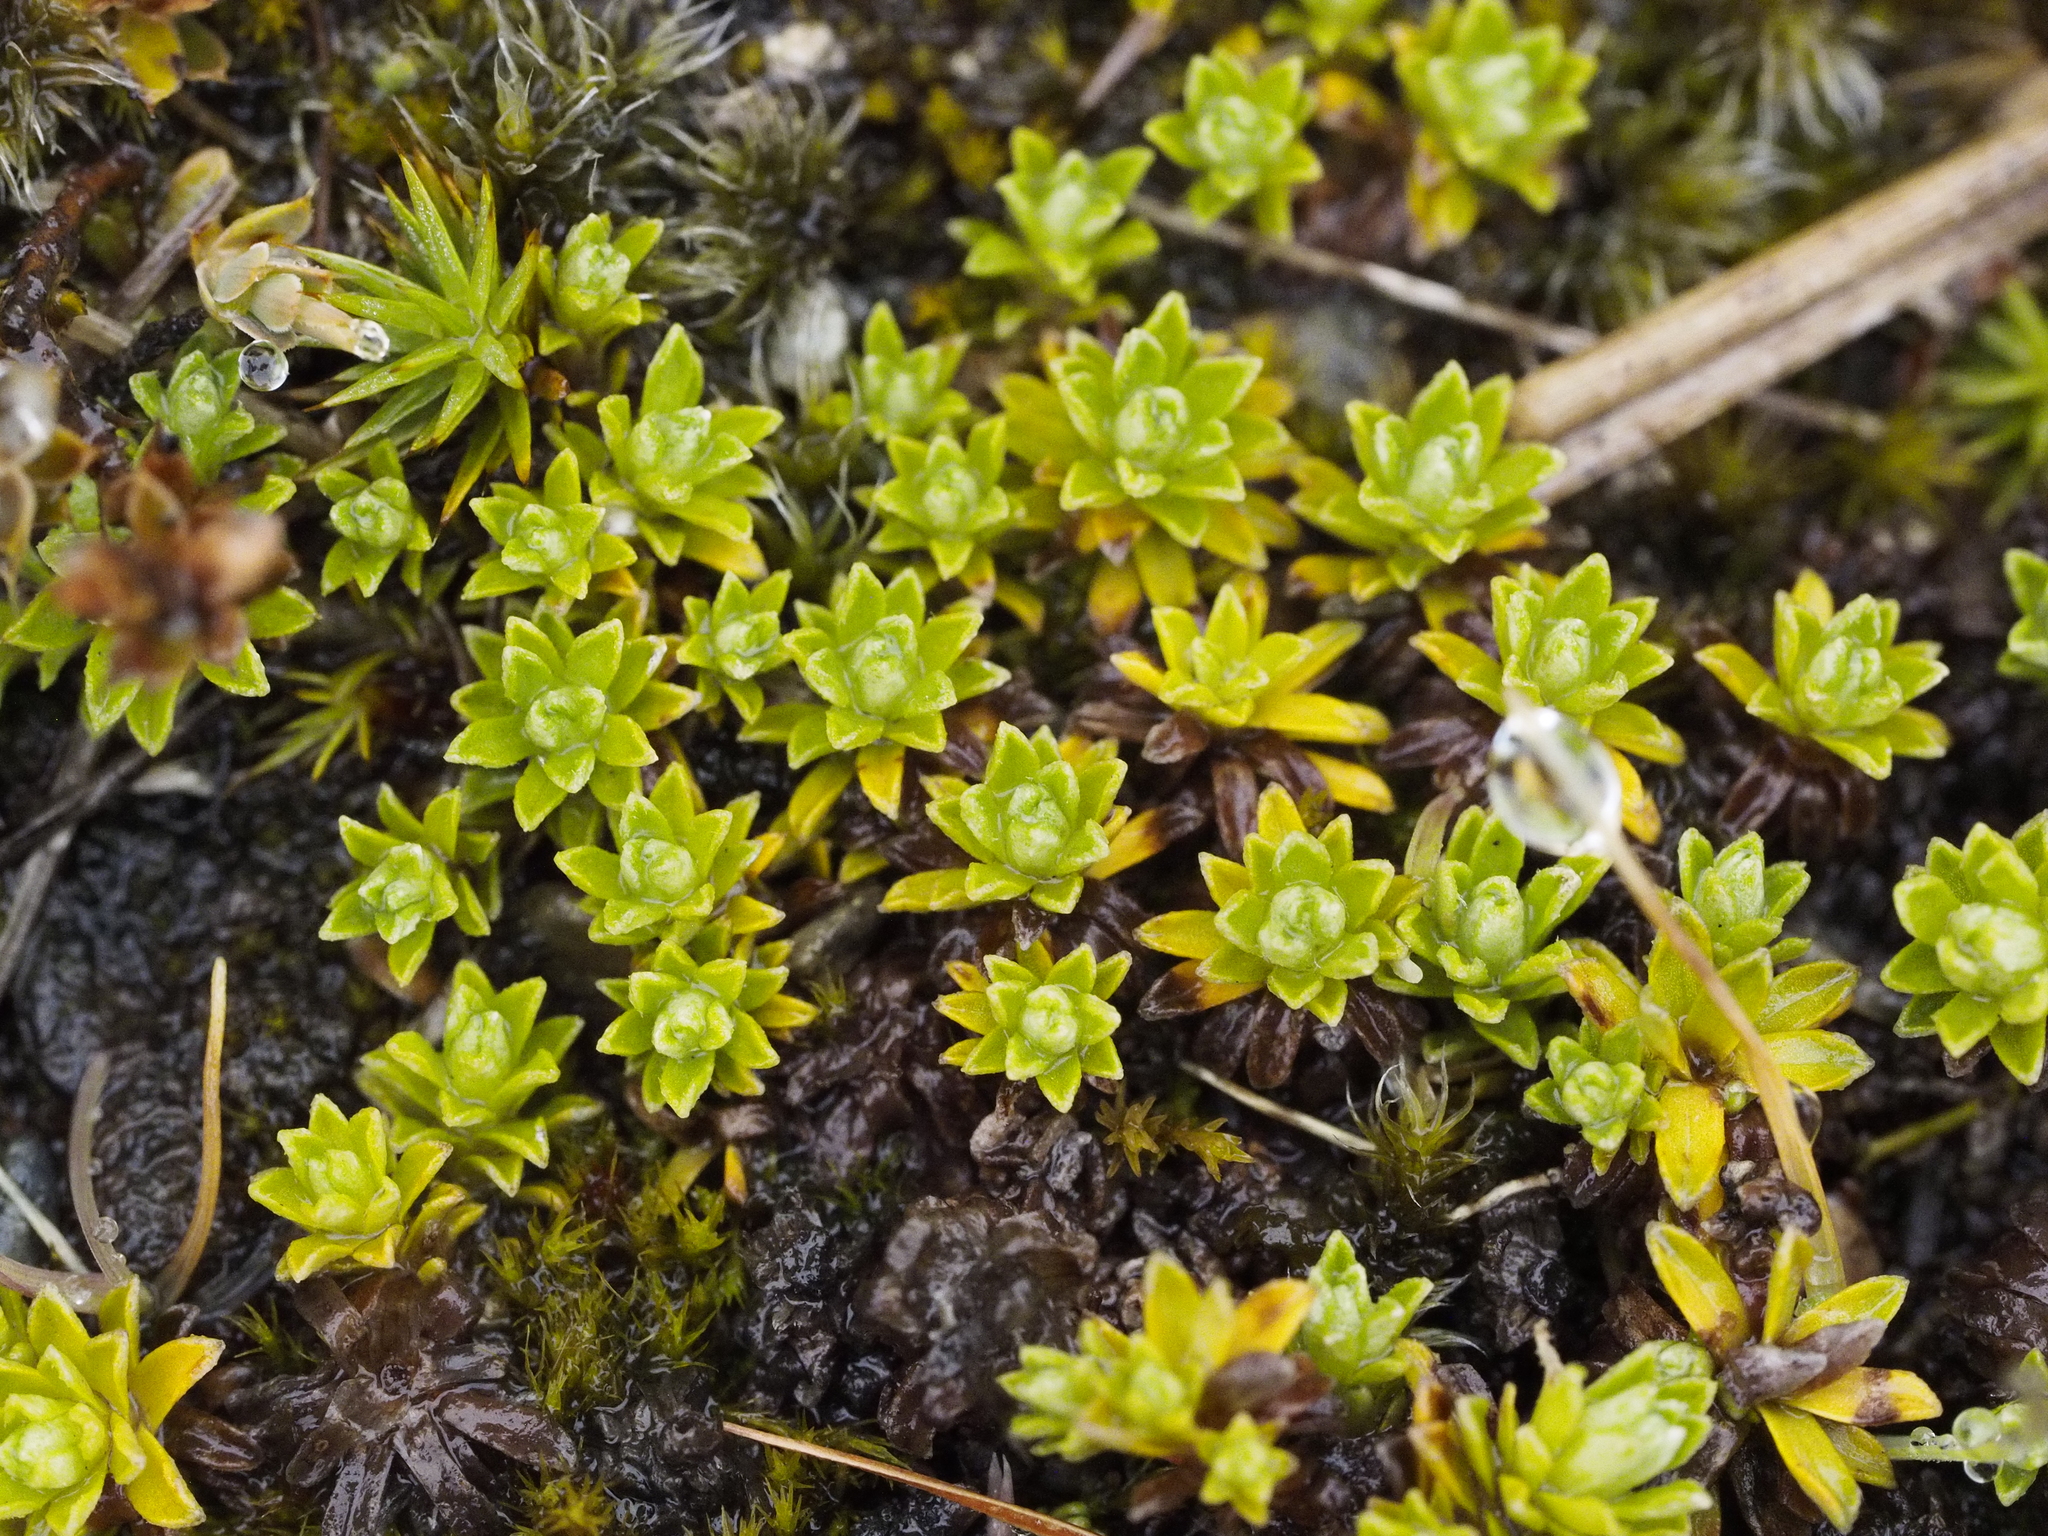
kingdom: Plantae
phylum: Tracheophyta
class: Magnoliopsida
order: Asterales
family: Asteraceae
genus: Raoulia
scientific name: Raoulia subsericea
